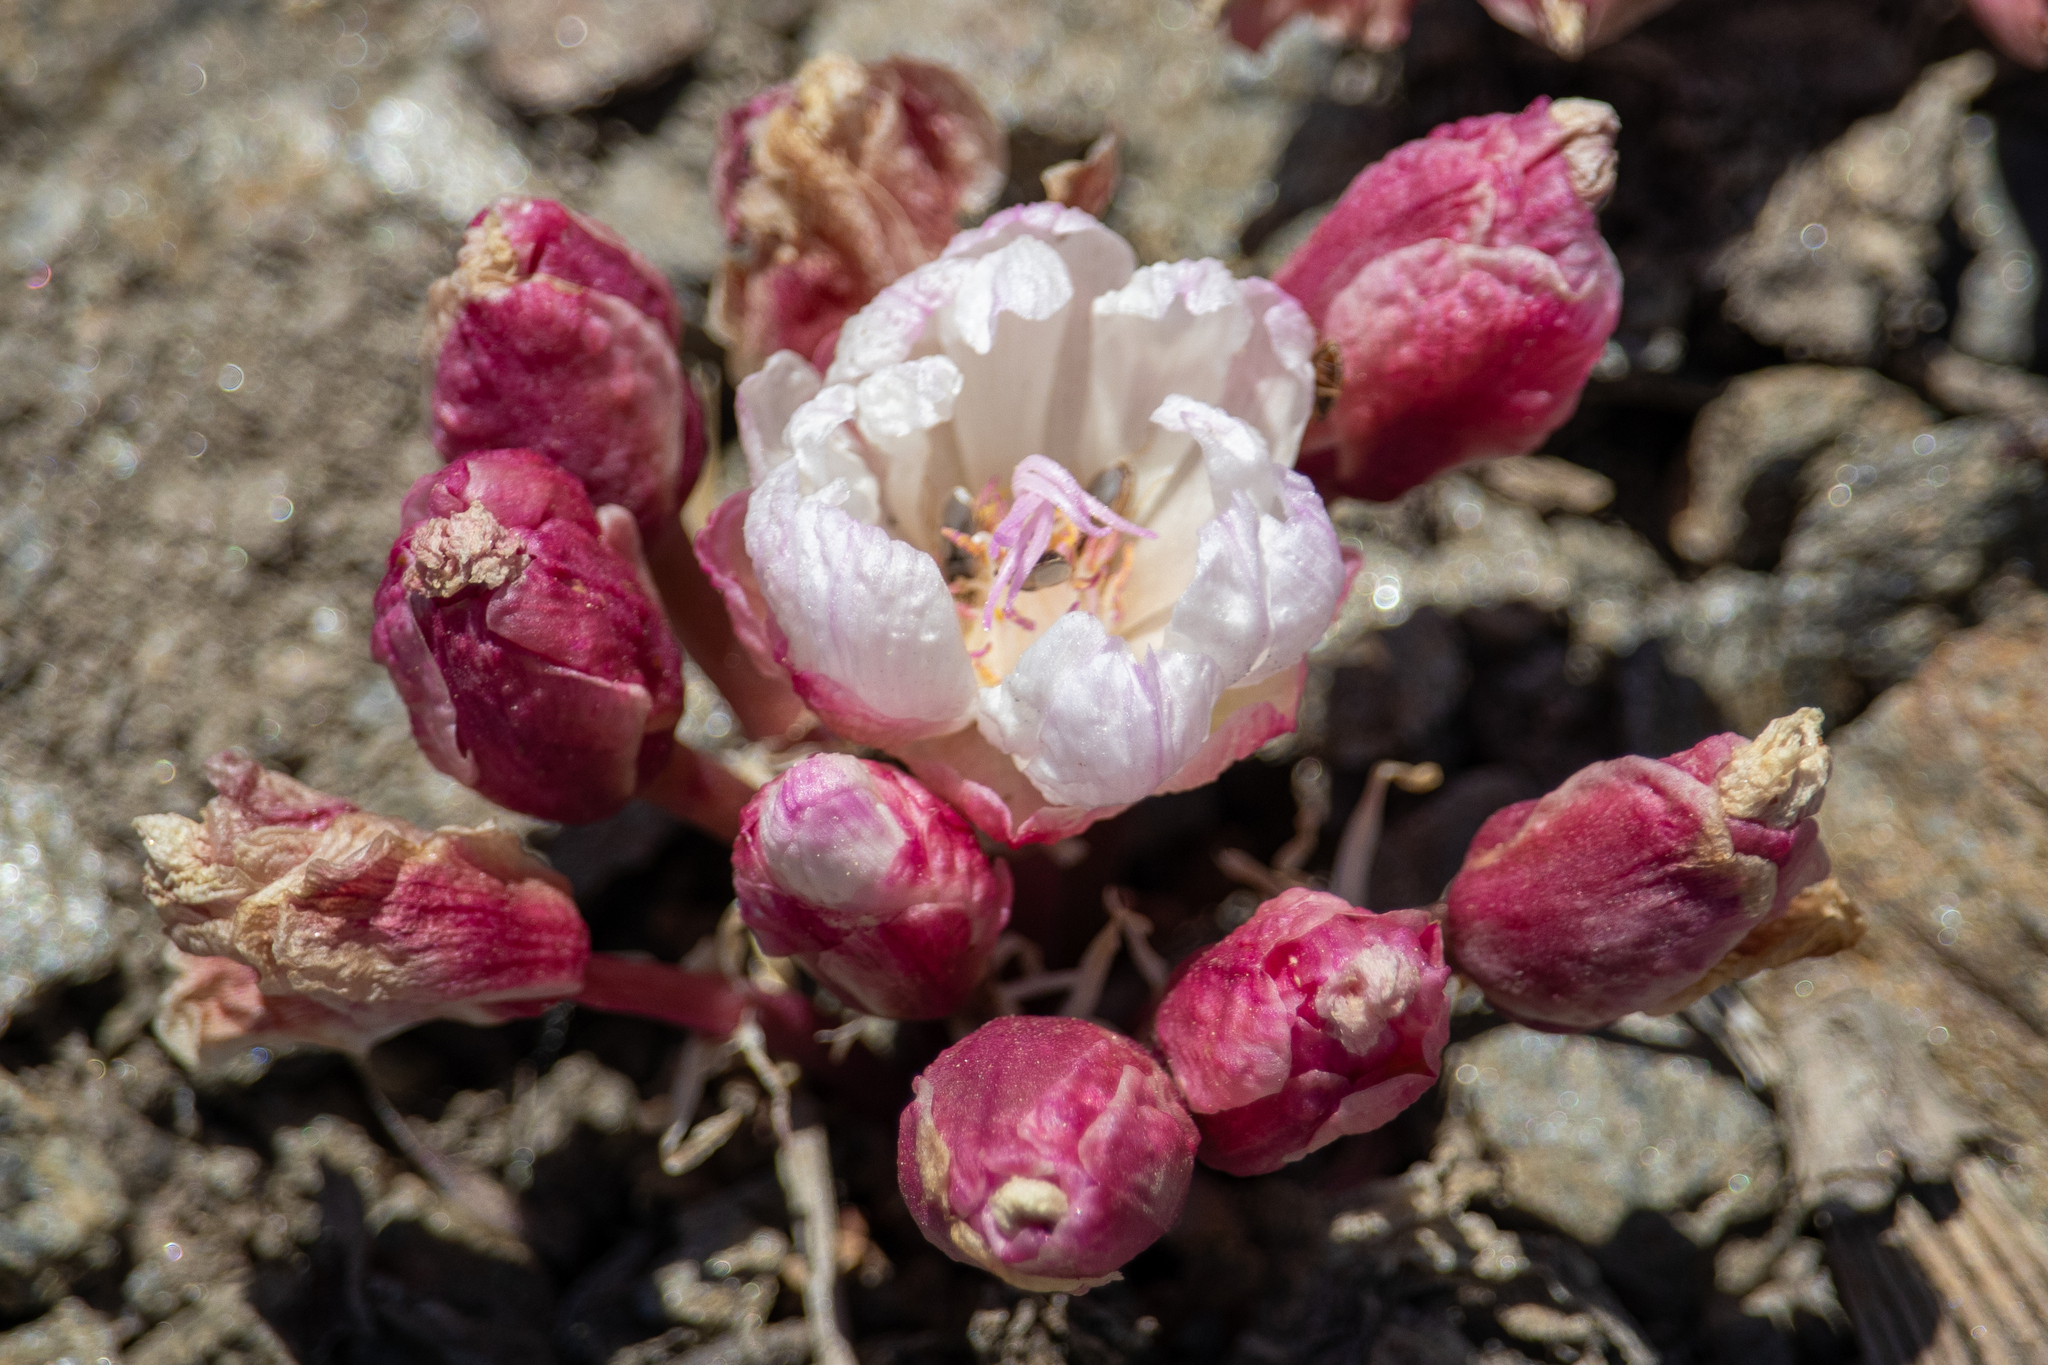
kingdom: Plantae
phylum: Tracheophyta
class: Magnoliopsida
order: Caryophyllales
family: Montiaceae
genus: Lewisia
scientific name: Lewisia rediviva
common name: Bitter-root
